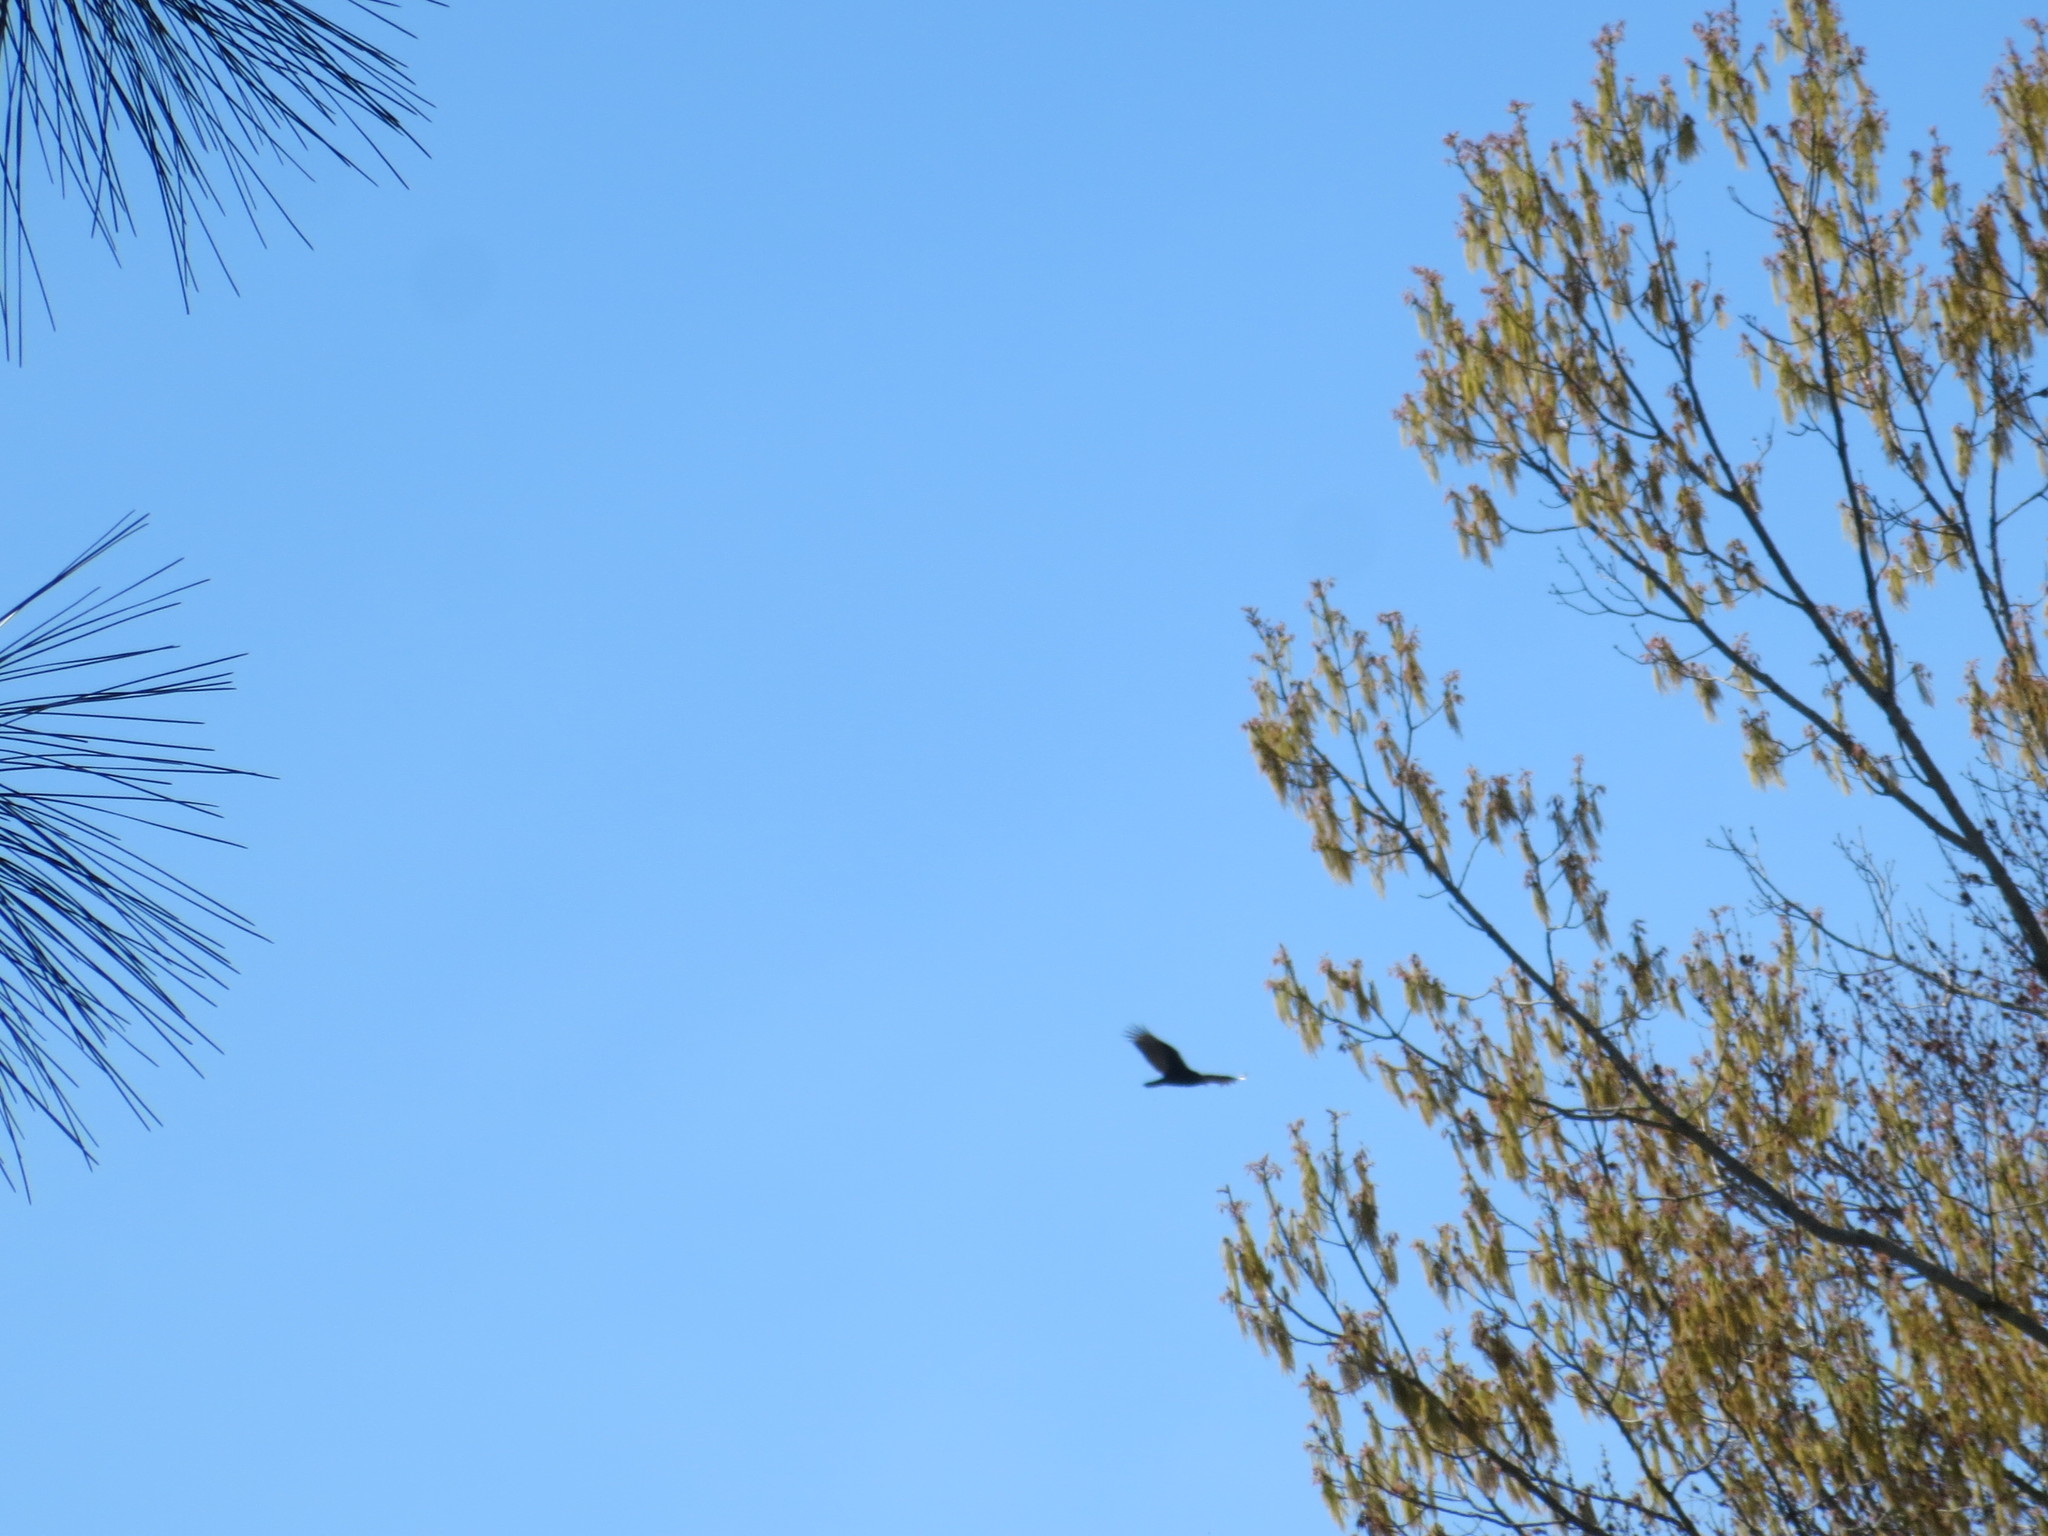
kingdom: Animalia
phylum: Chordata
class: Aves
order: Accipitriformes
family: Cathartidae
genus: Cathartes
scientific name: Cathartes aura
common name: Turkey vulture
